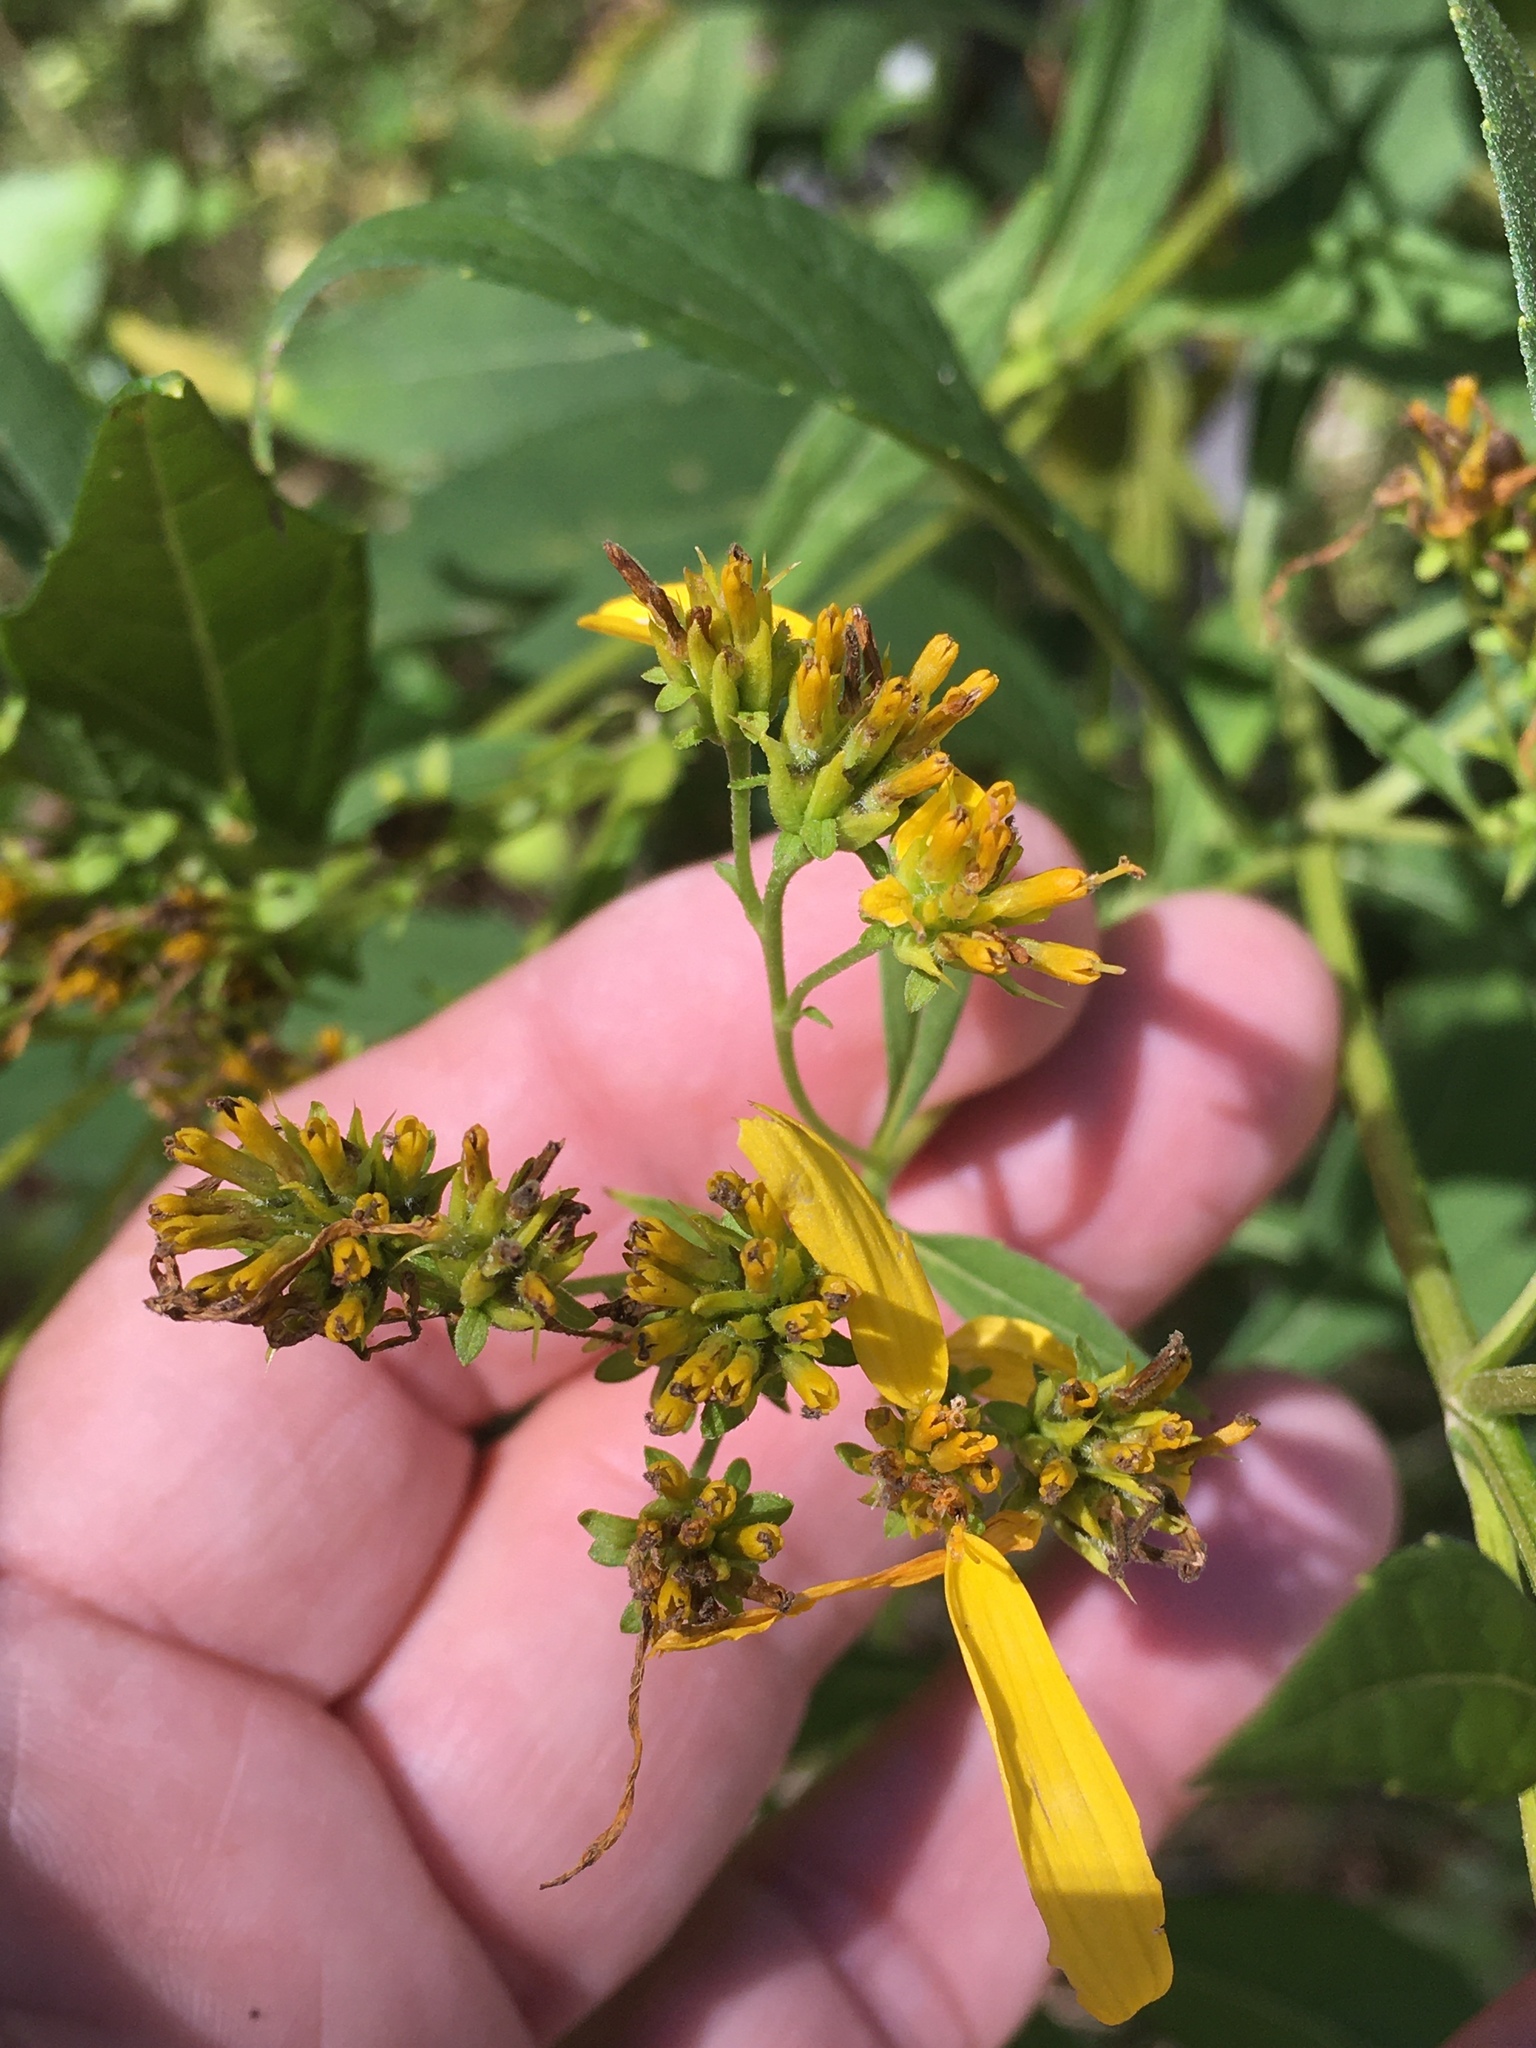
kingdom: Plantae
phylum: Tracheophyta
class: Magnoliopsida
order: Asterales
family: Asteraceae
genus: Verbesina
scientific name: Verbesina occidentalis
